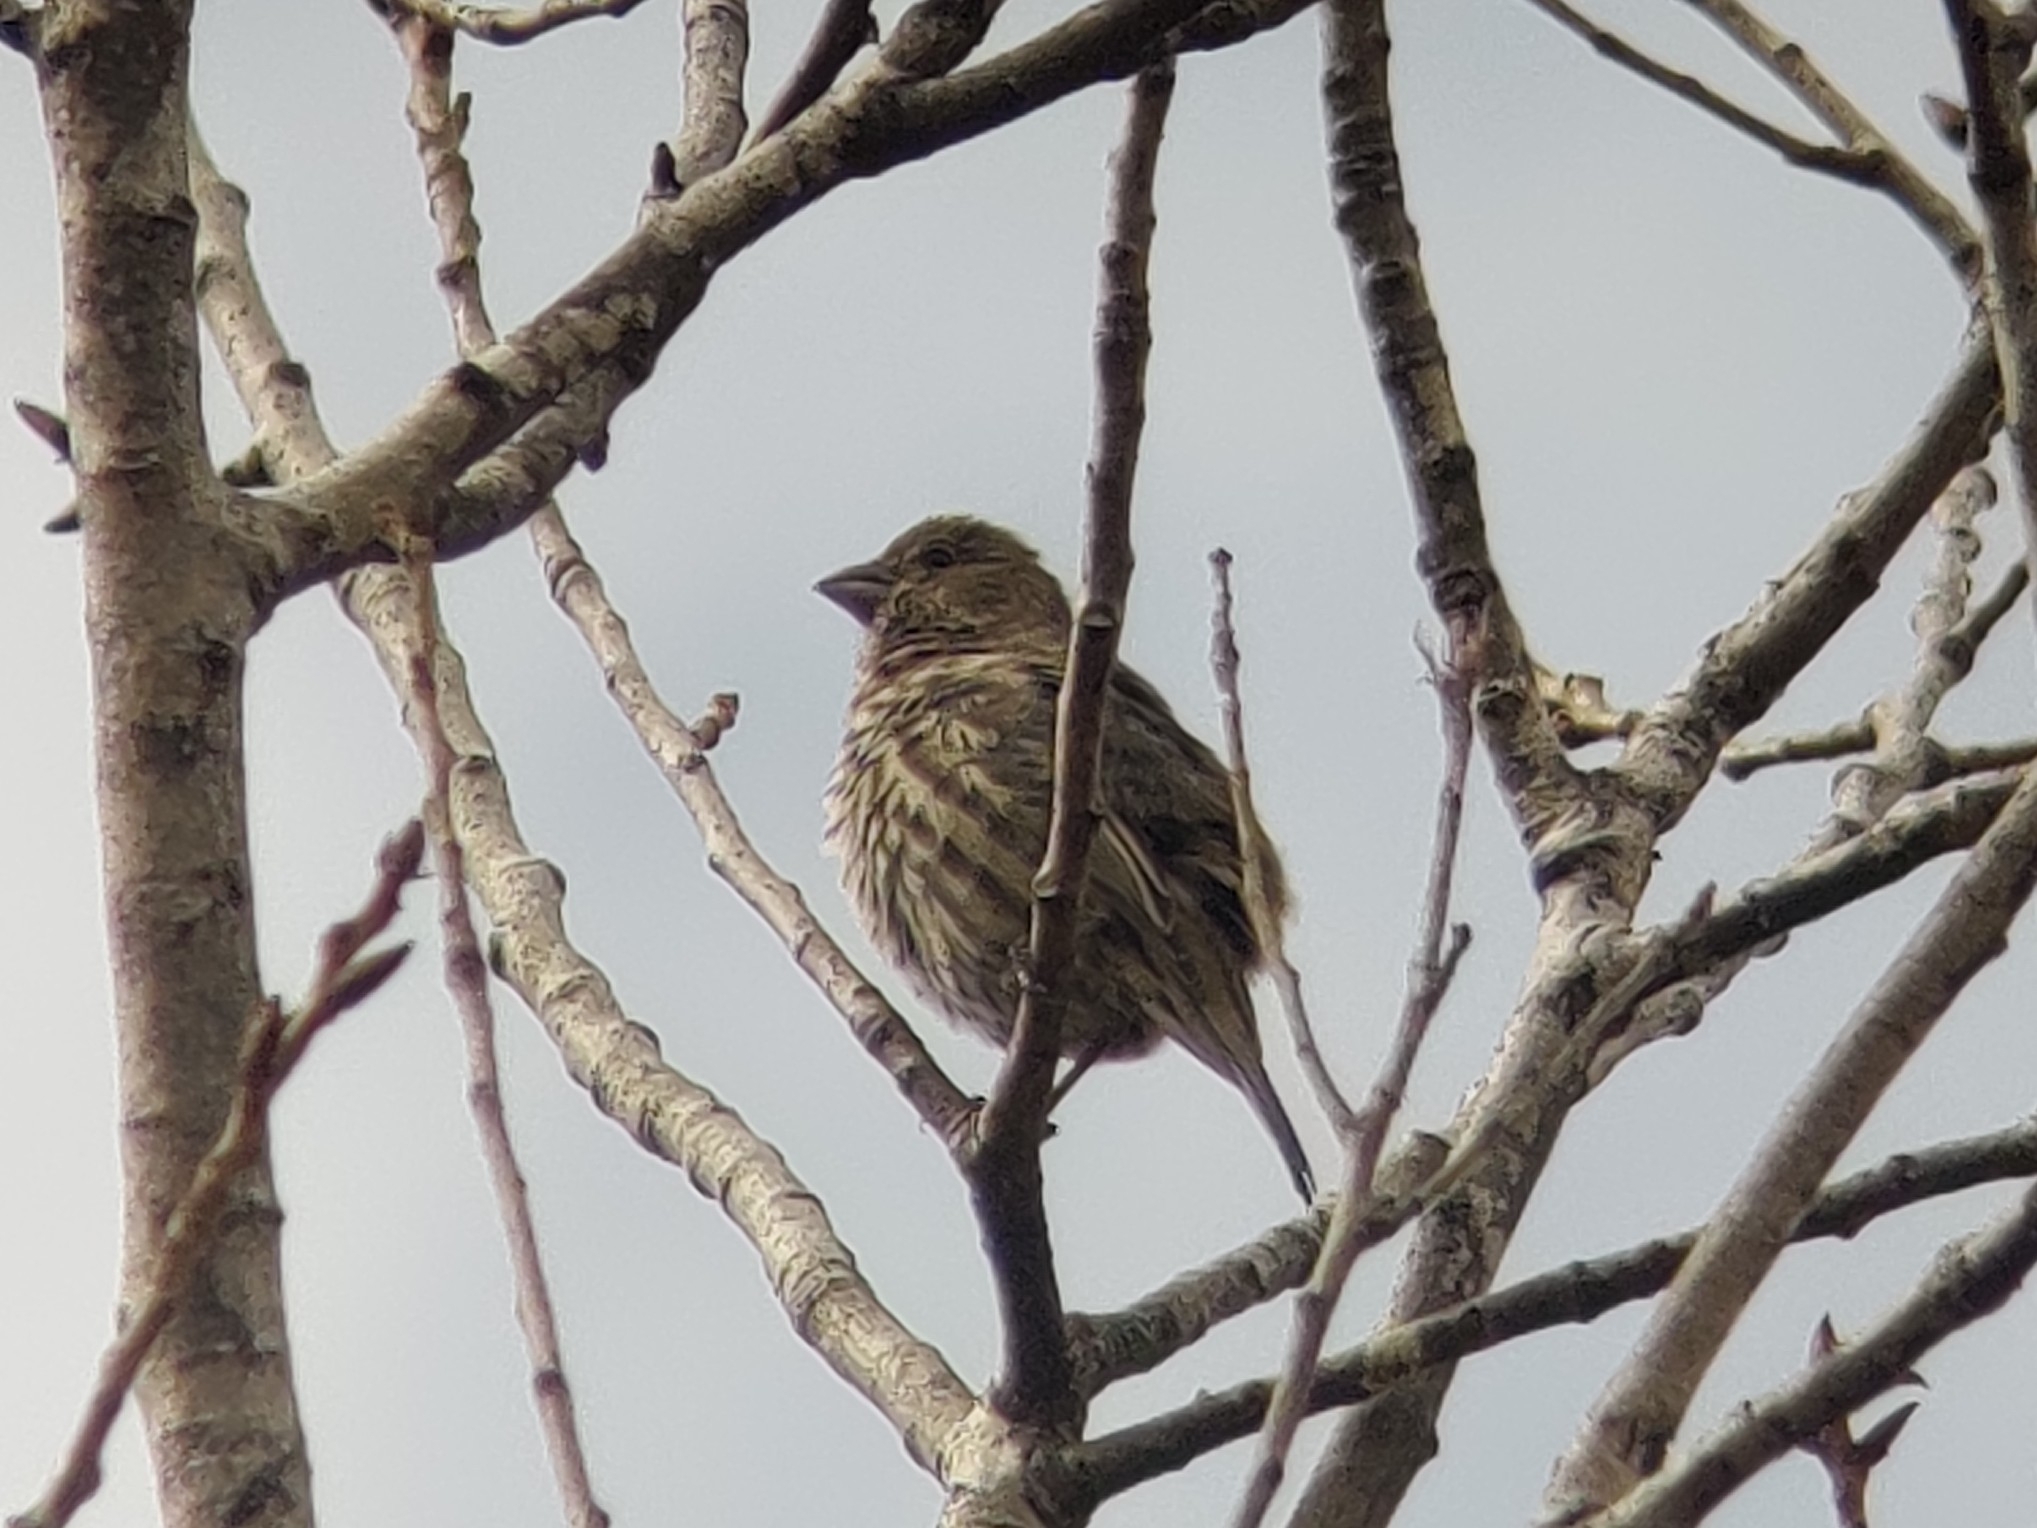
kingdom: Animalia
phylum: Chordata
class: Aves
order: Passeriformes
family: Fringillidae
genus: Haemorhous
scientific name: Haemorhous mexicanus
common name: House finch
